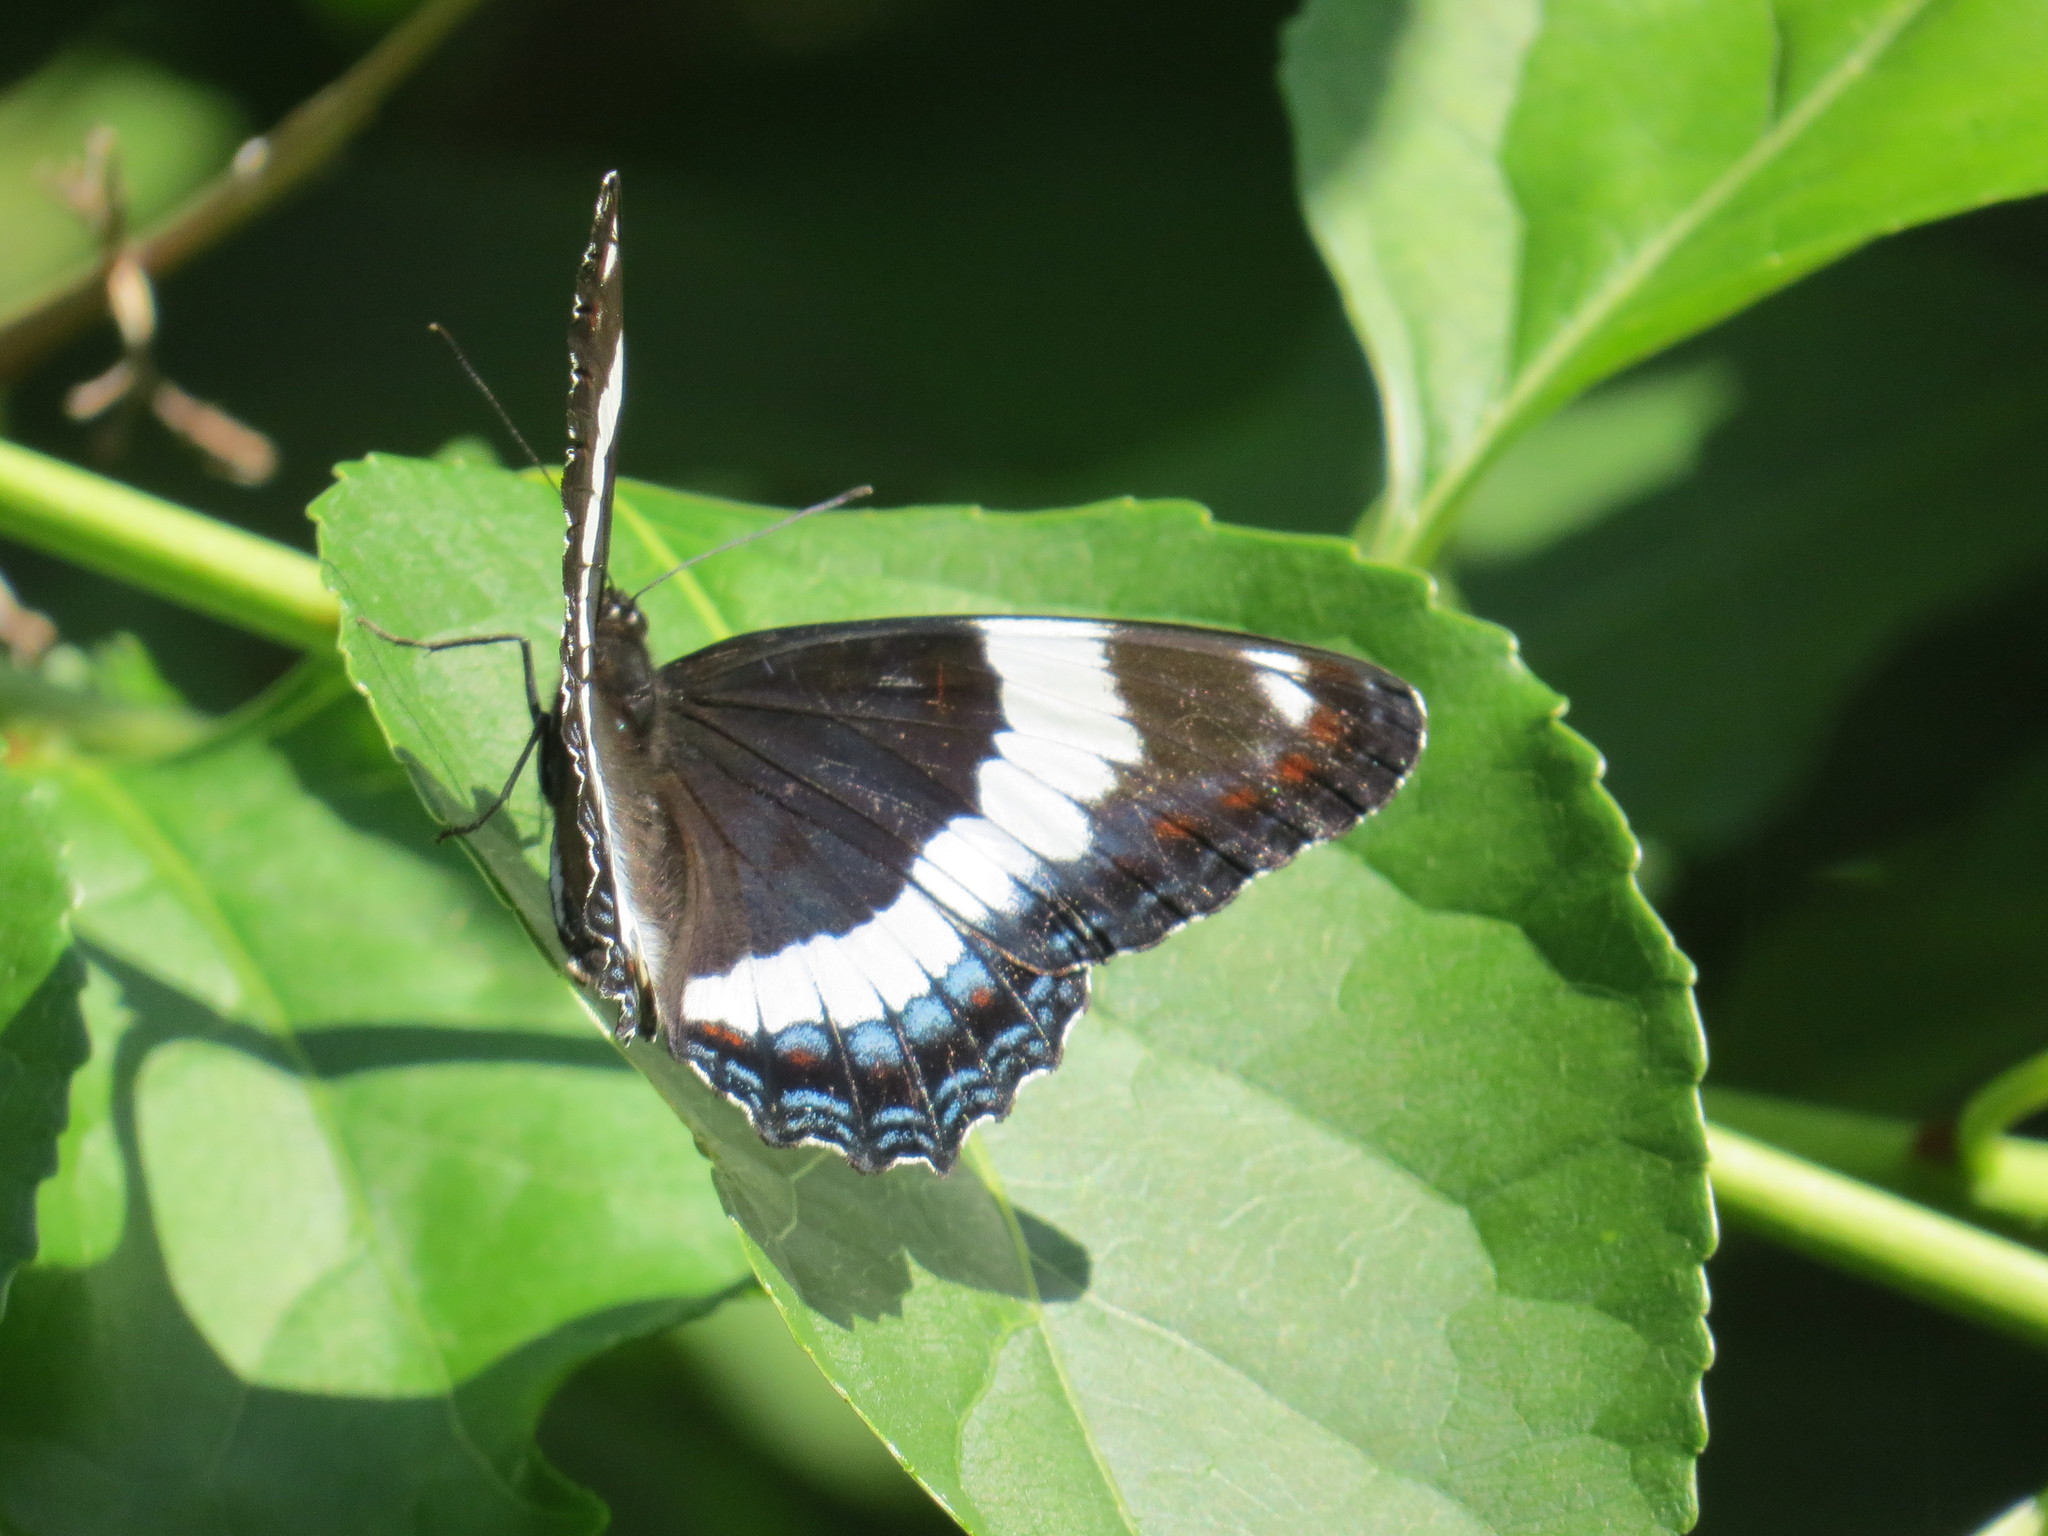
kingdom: Animalia
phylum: Arthropoda
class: Insecta
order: Lepidoptera
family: Nymphalidae
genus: Limenitis
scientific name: Limenitis arthemis
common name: Red-spotted admiral
